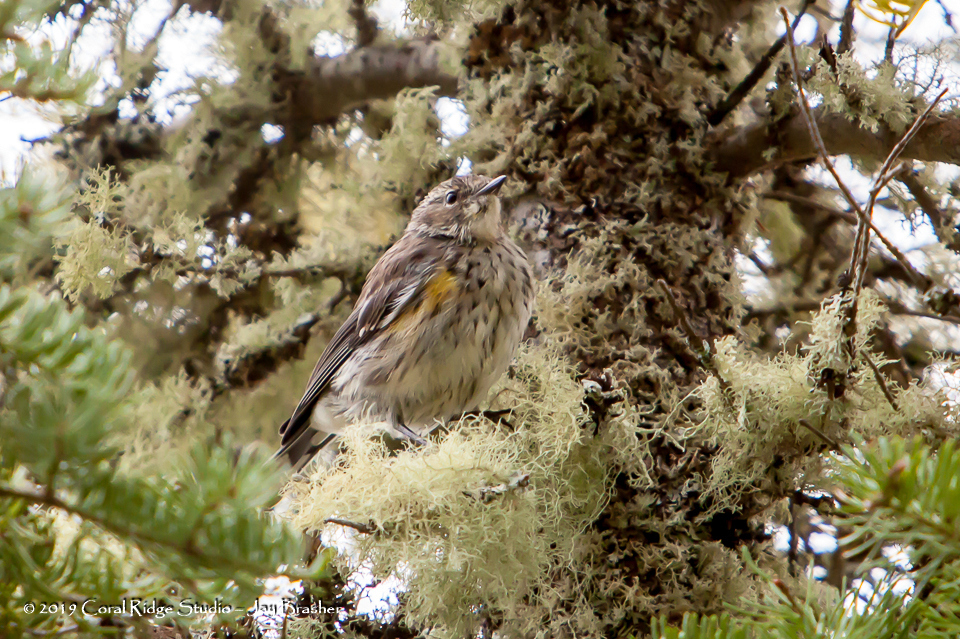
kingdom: Animalia
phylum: Chordata
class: Aves
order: Passeriformes
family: Parulidae
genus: Setophaga
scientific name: Setophaga coronata
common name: Myrtle warbler
